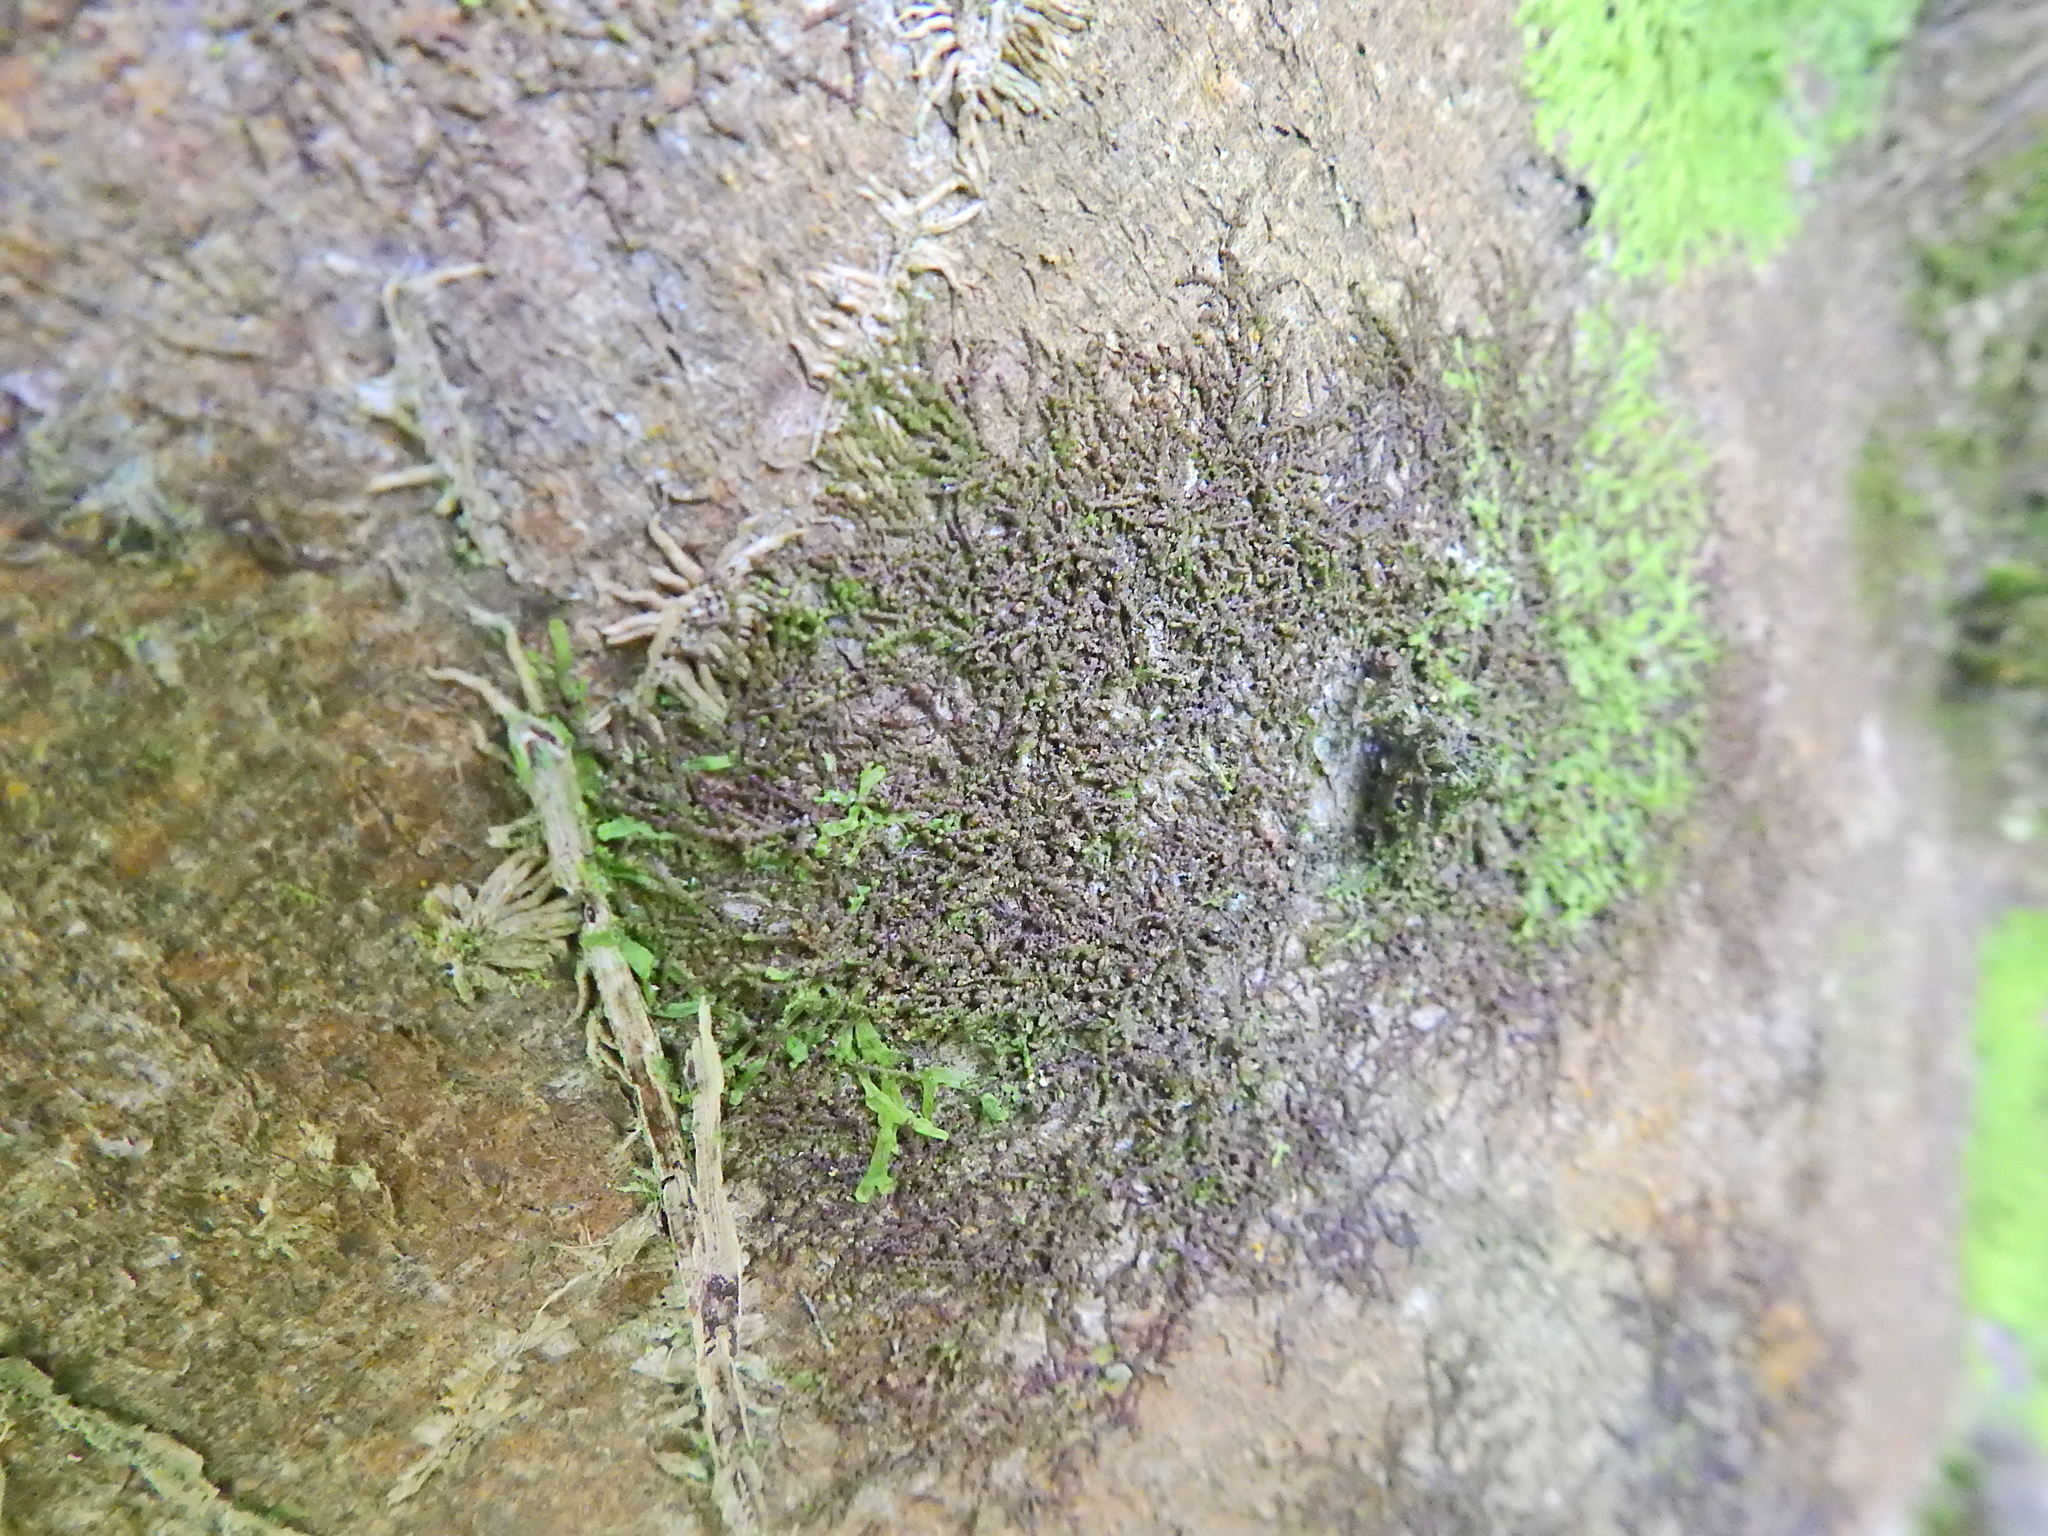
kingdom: Plantae
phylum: Marchantiophyta
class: Jungermanniopsida
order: Porellales
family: Frullaniaceae
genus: Frullania
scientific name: Frullania dilatata
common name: Dilated scalewort
